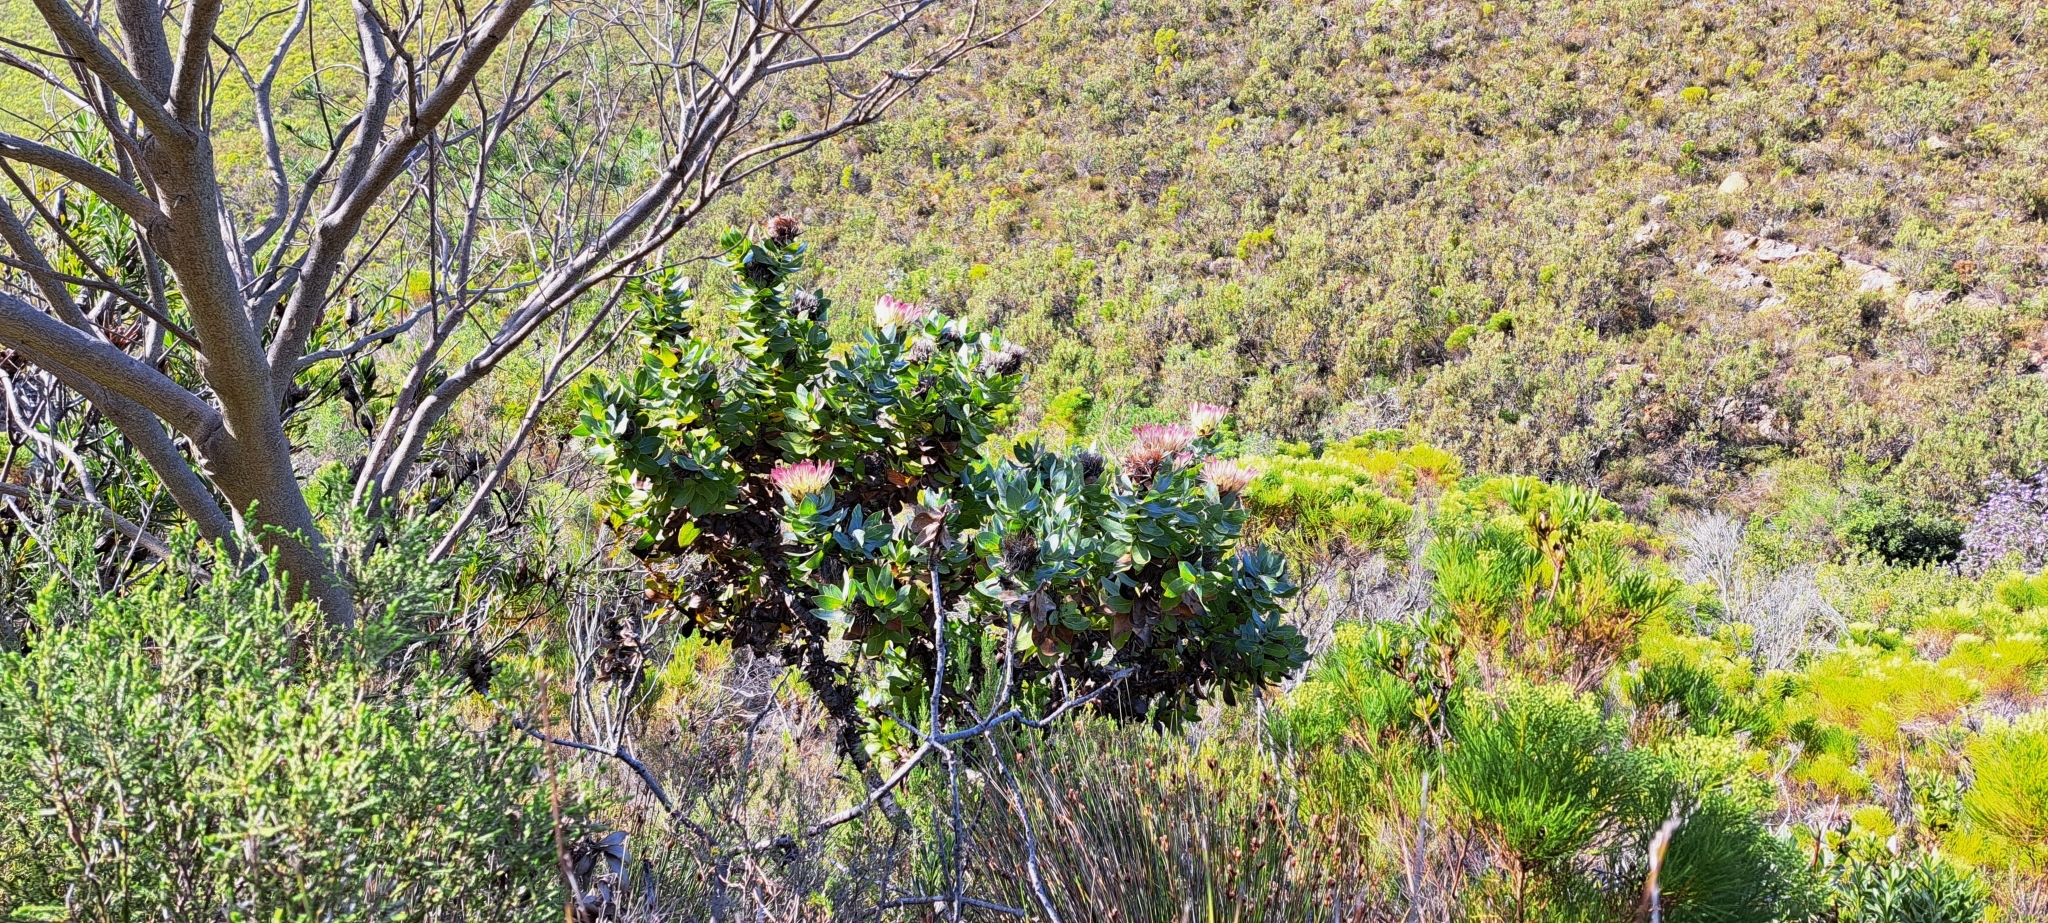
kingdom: Plantae
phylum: Tracheophyta
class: Magnoliopsida
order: Proteales
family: Proteaceae
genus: Protea
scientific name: Protea eximia
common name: Broad-leaved sugarbush
